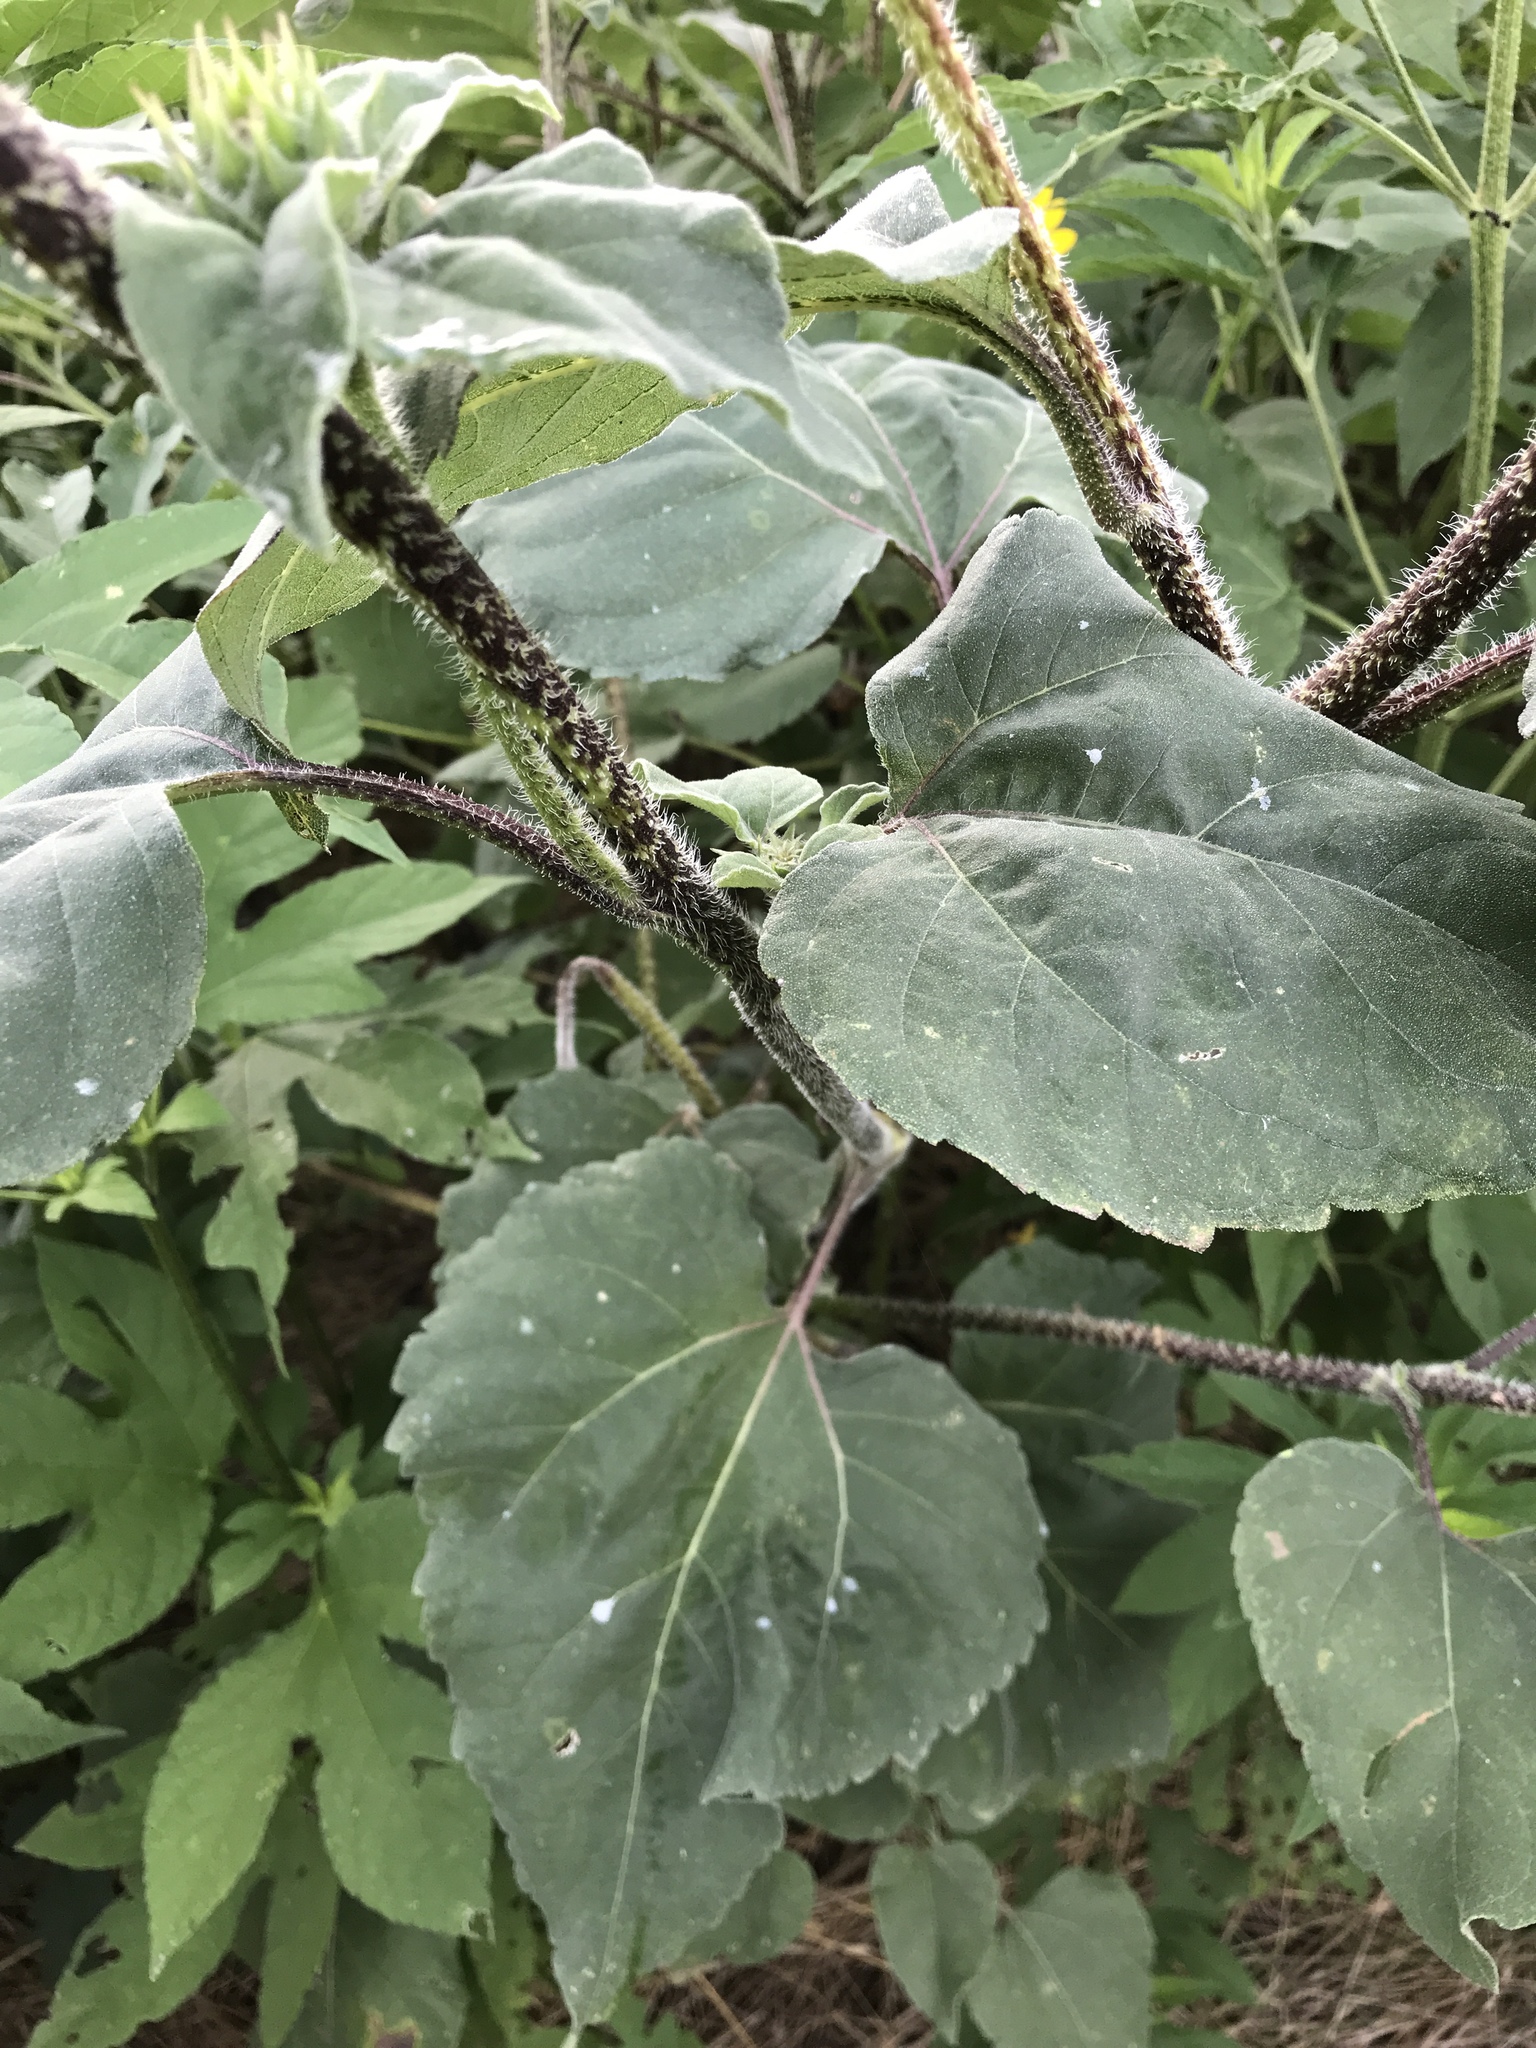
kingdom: Plantae
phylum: Tracheophyta
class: Magnoliopsida
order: Asterales
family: Asteraceae
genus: Helianthus
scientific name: Helianthus annuus
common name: Sunflower
